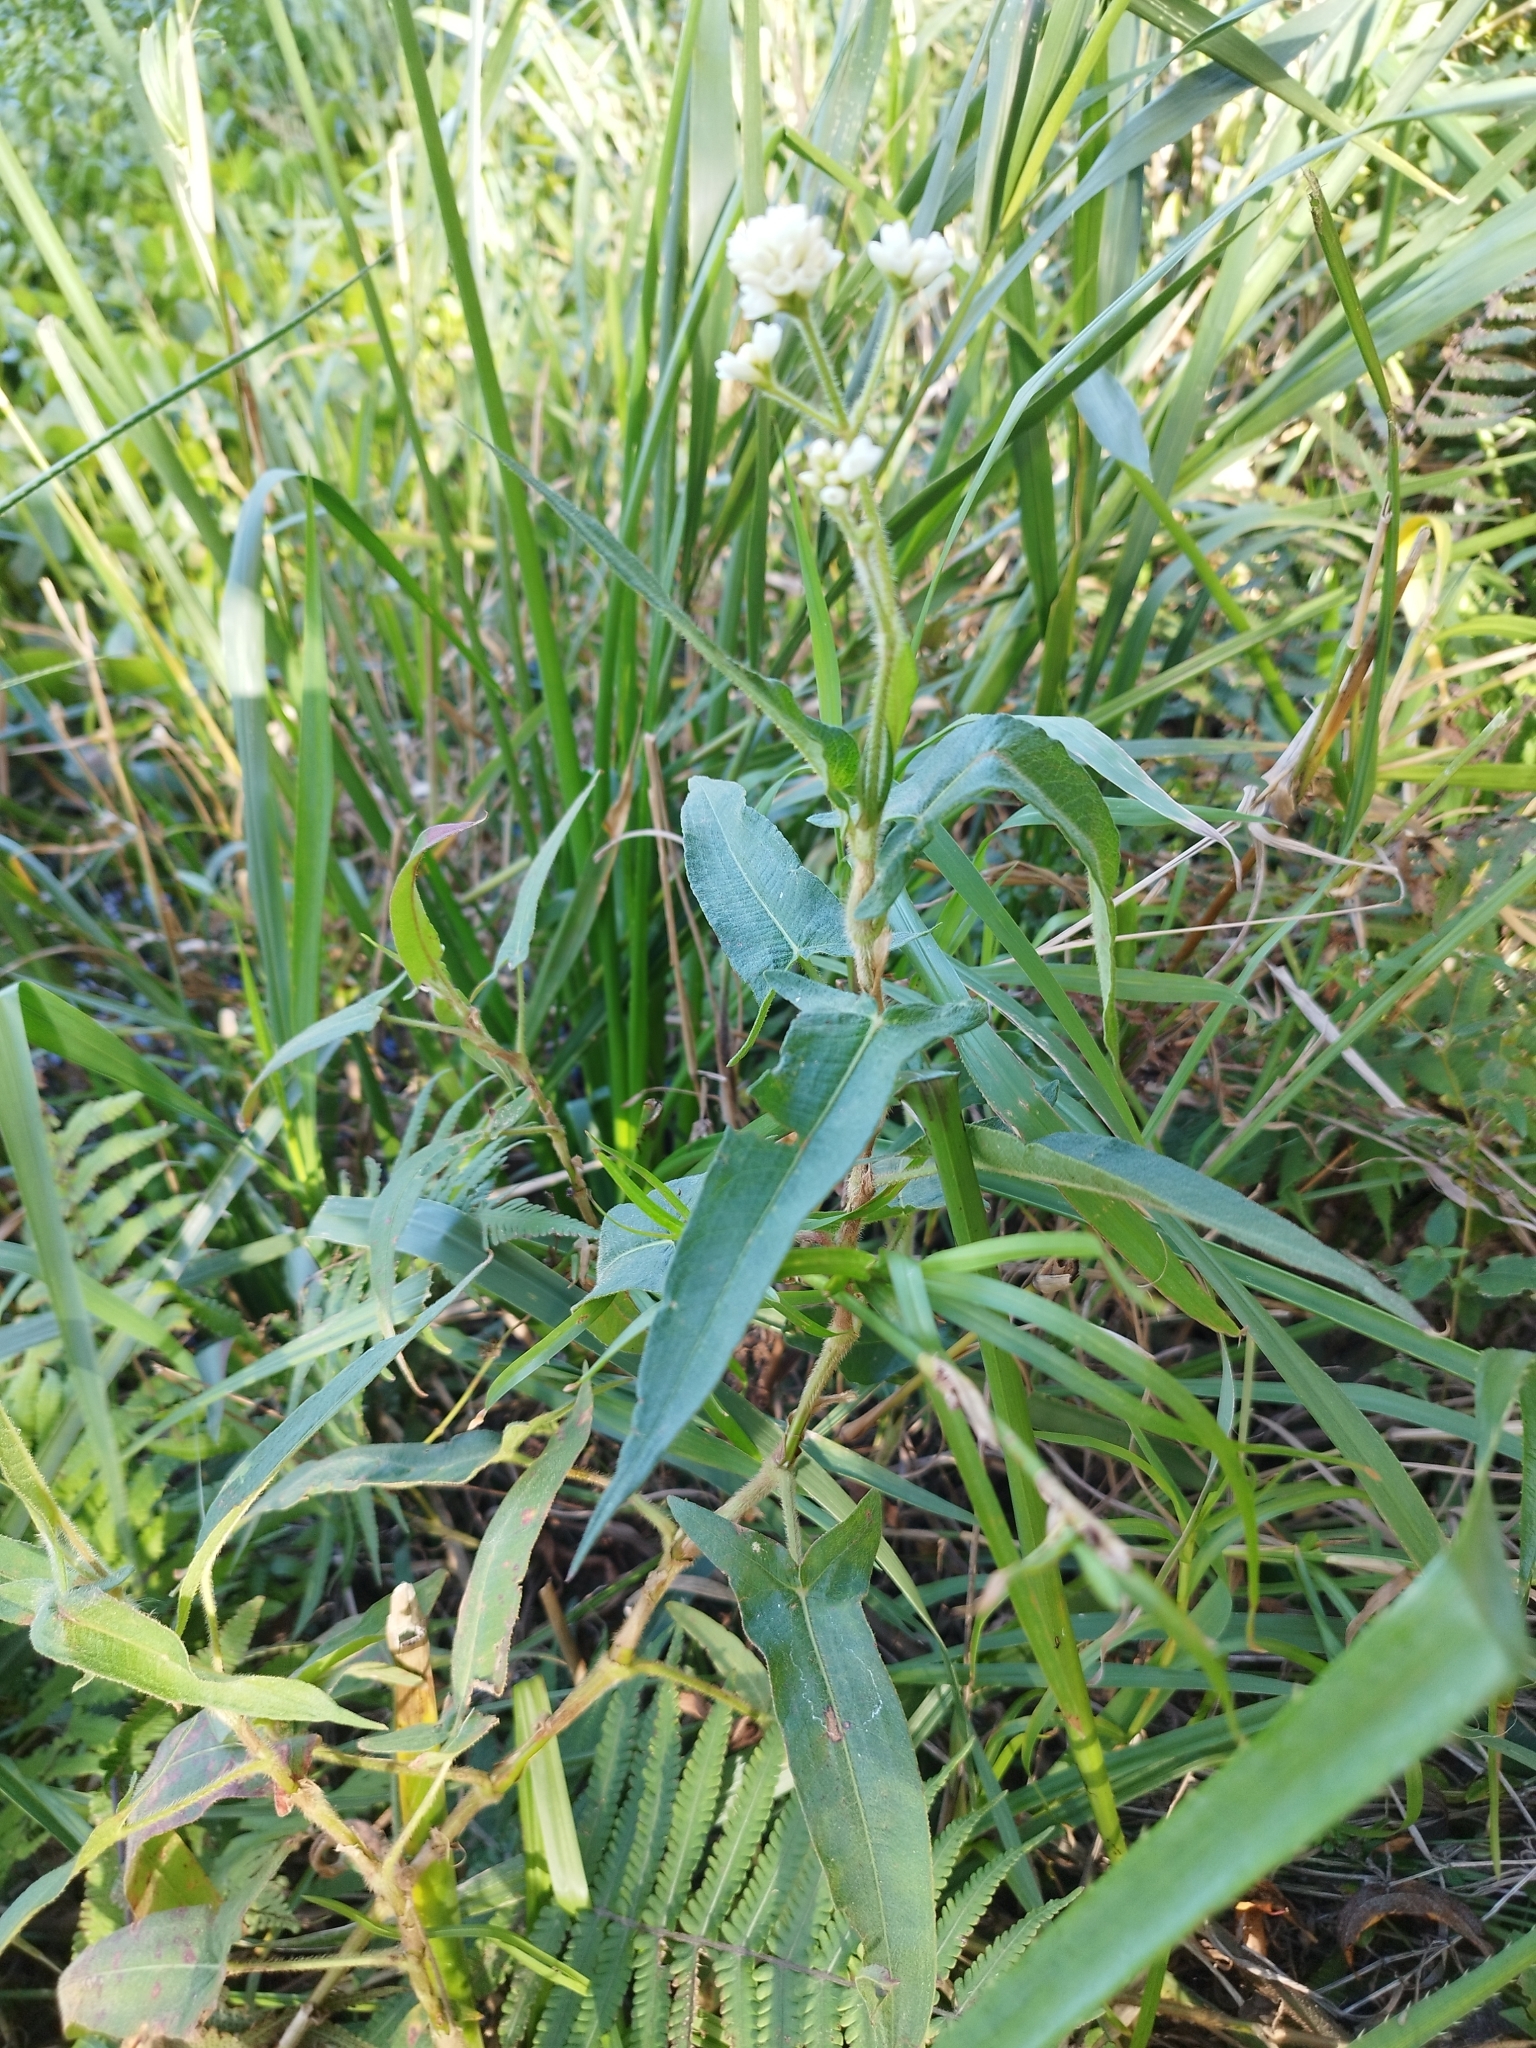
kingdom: Plantae
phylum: Tracheophyta
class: Magnoliopsida
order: Caryophyllales
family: Polygonaceae
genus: Persicaria
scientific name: Persicaria stelligera
